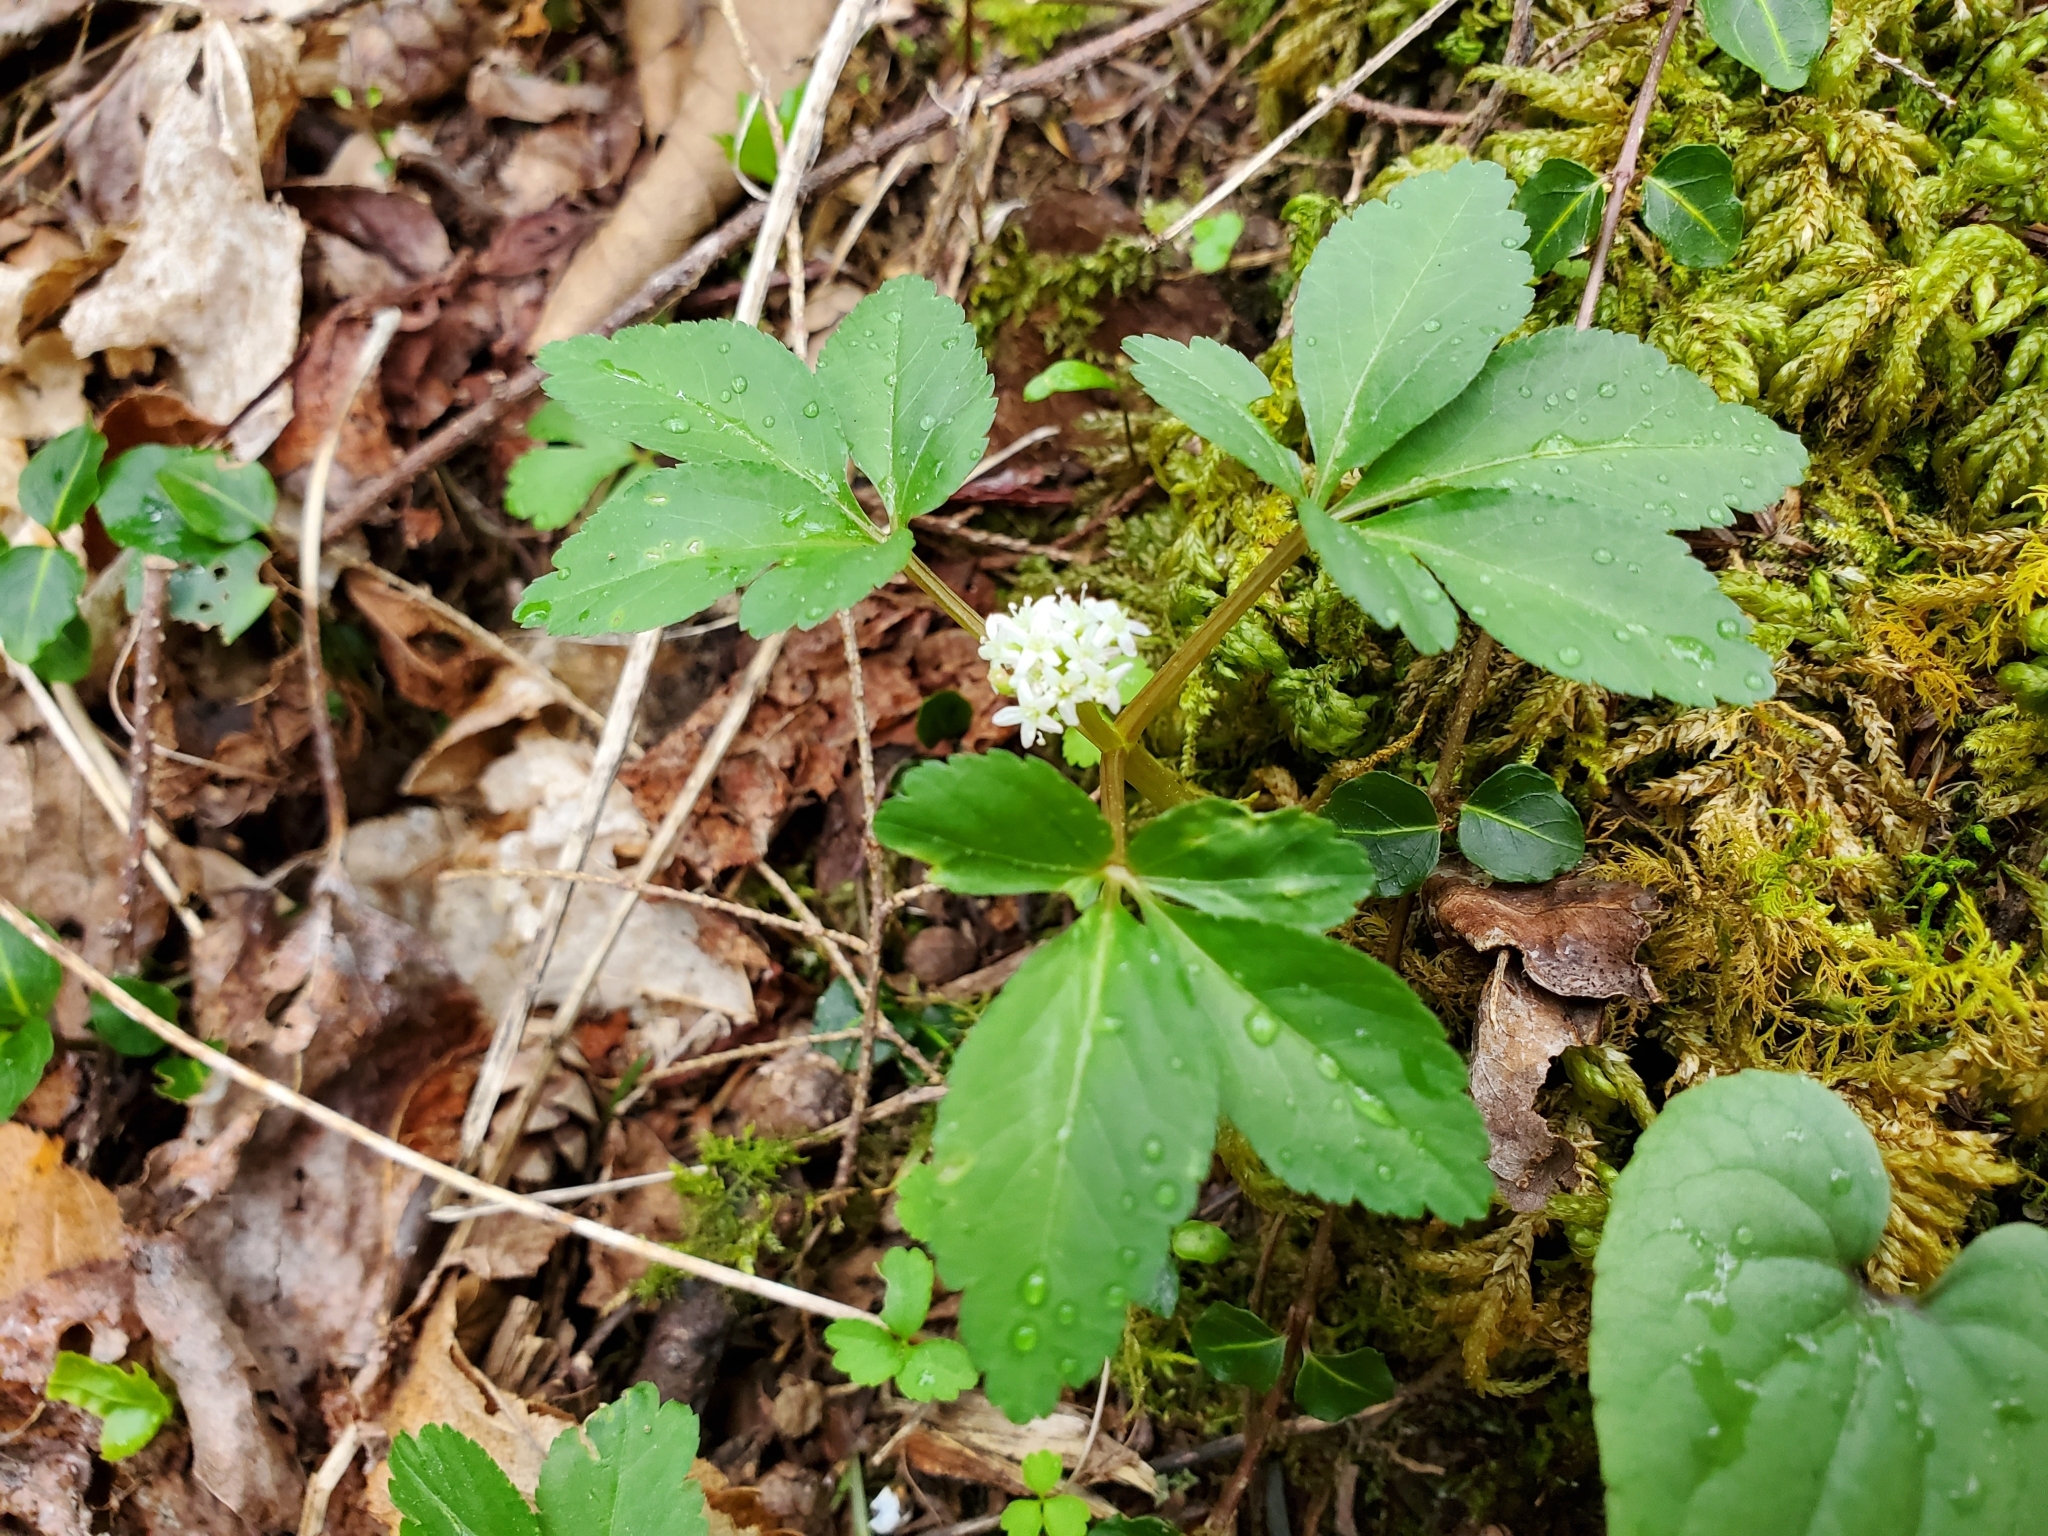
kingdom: Plantae
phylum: Tracheophyta
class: Magnoliopsida
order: Apiales
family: Araliaceae
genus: Panax
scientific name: Panax trifolius
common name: Dwarf ginseng
